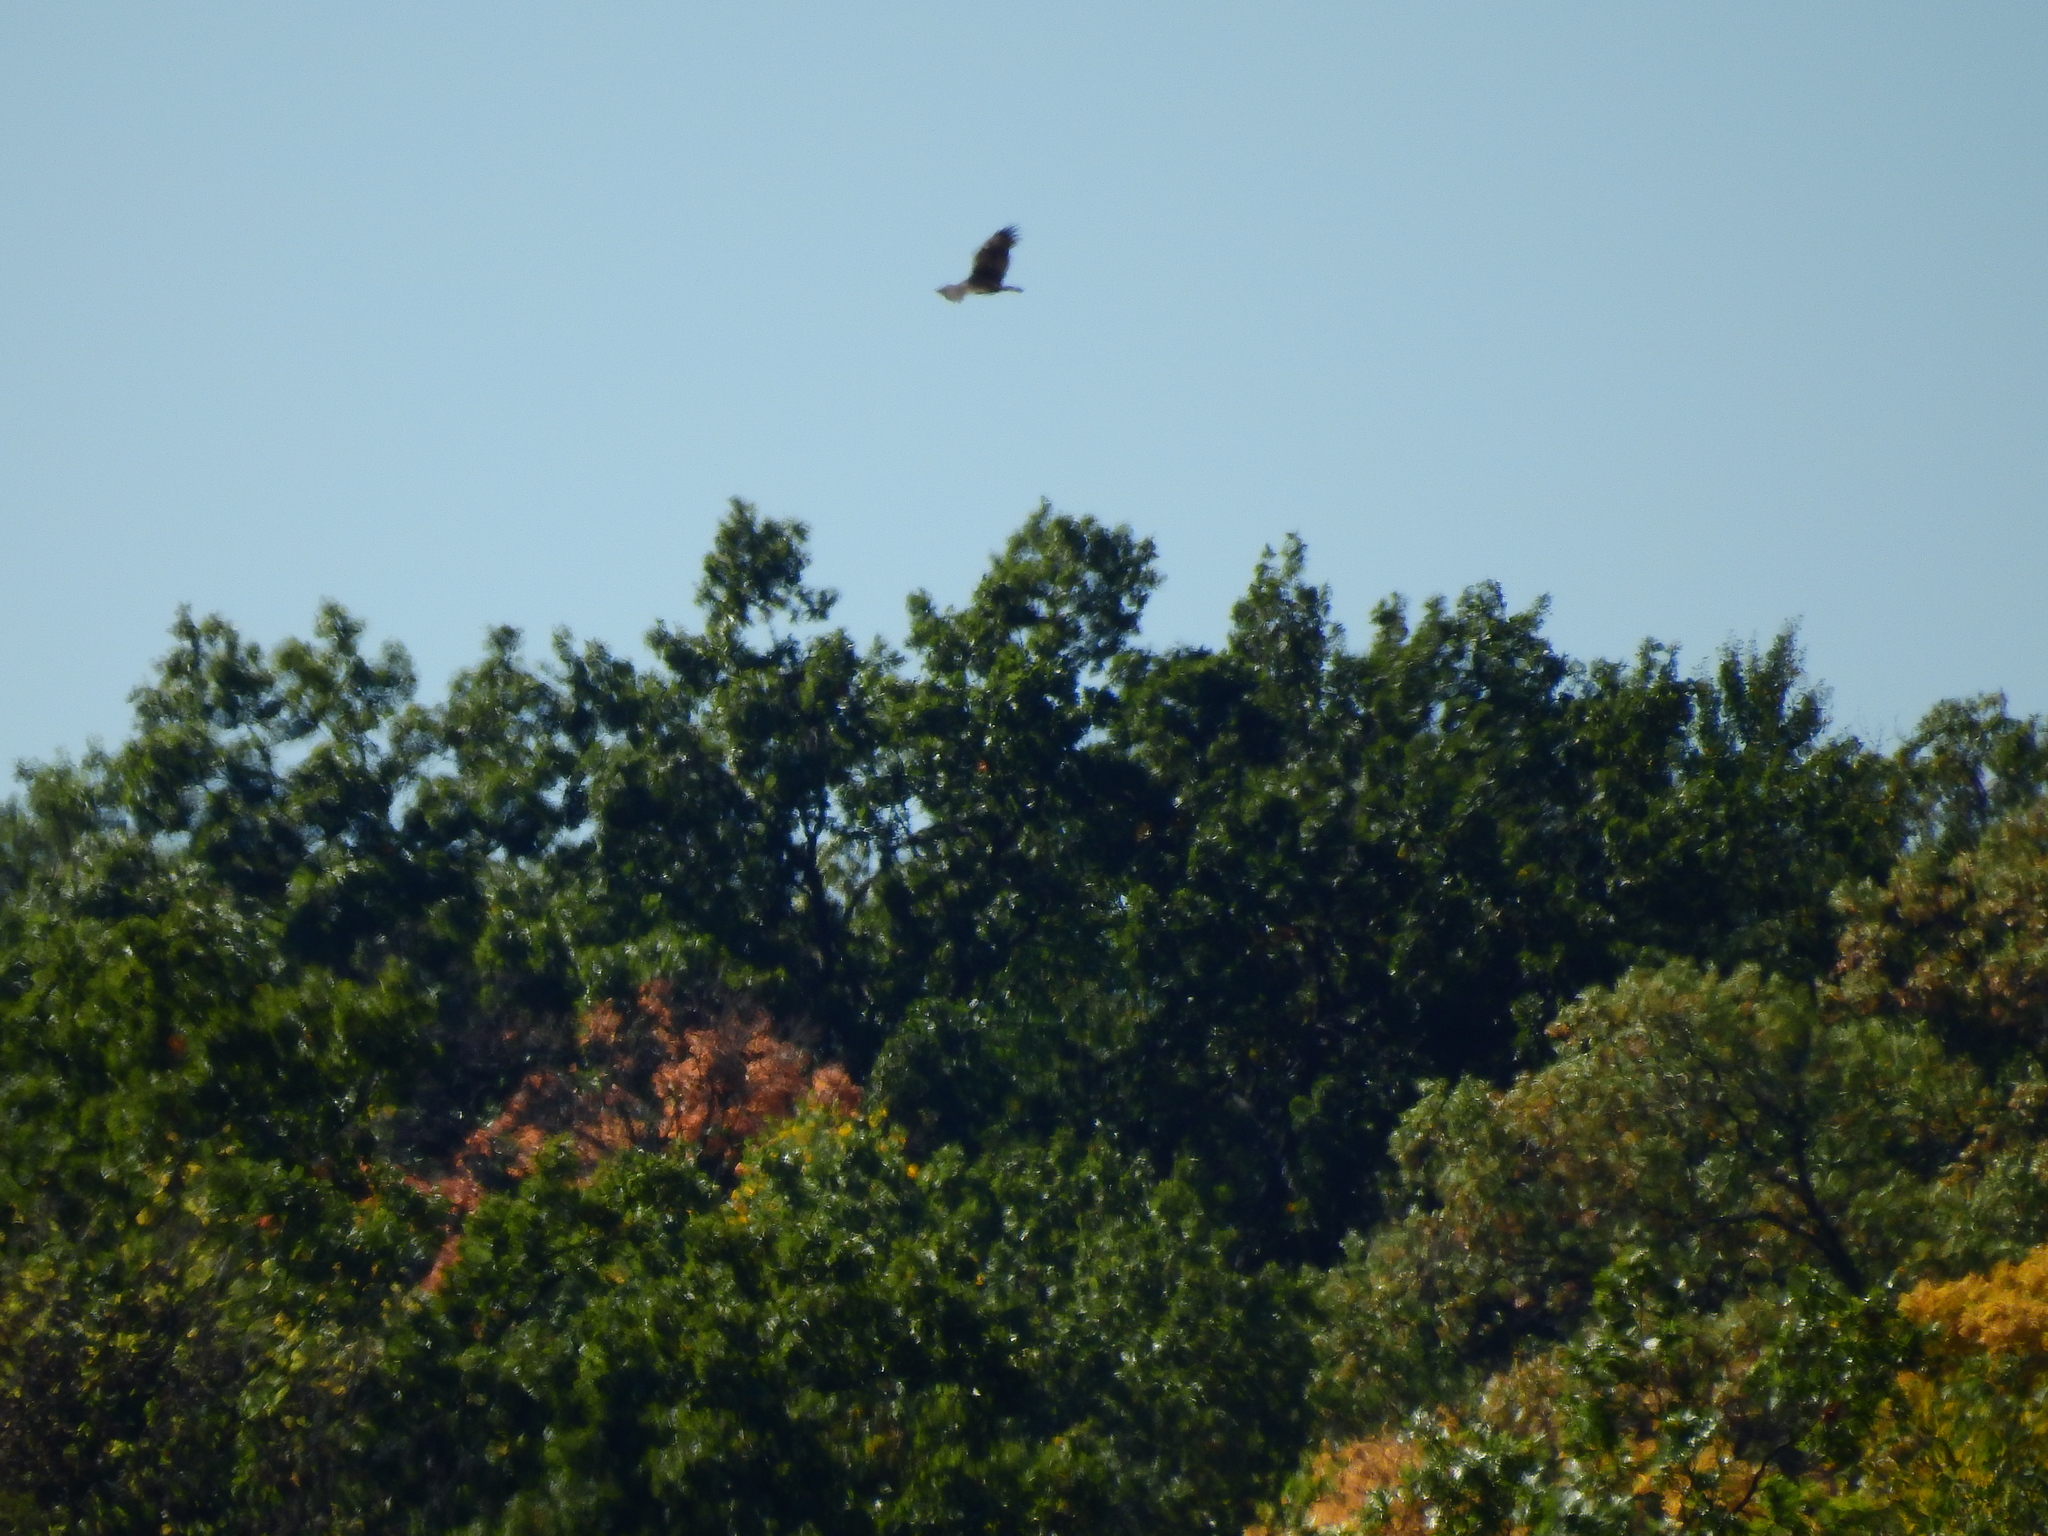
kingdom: Animalia
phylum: Chordata
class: Aves
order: Accipitriformes
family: Cathartidae
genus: Cathartes
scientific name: Cathartes aura
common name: Turkey vulture
